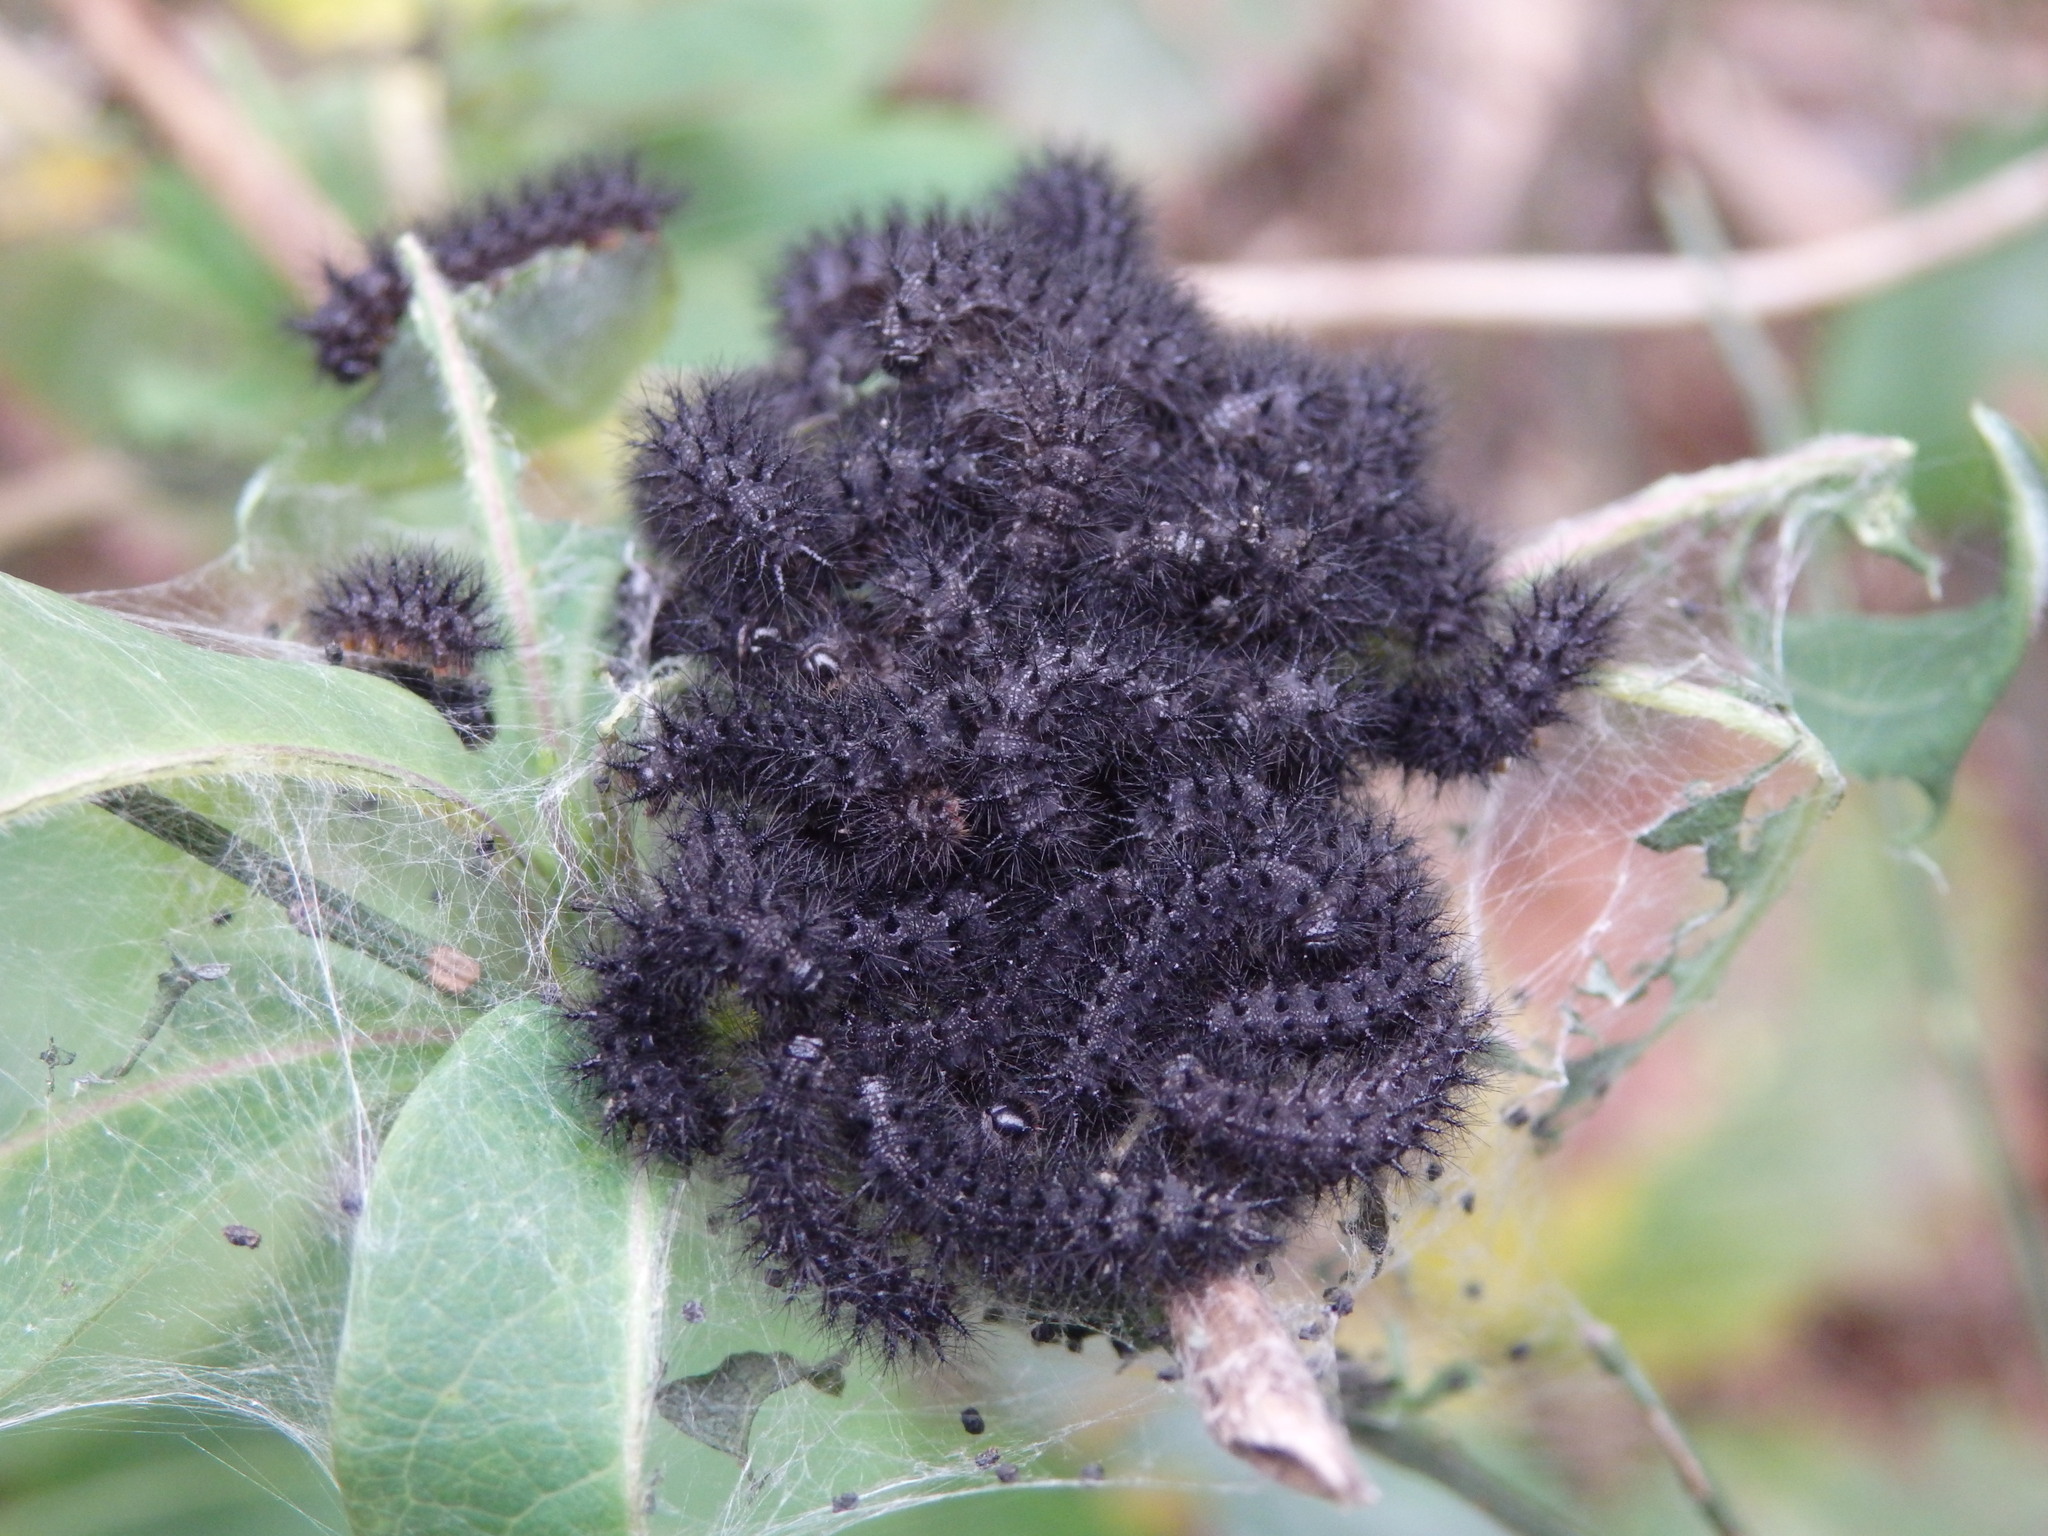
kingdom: Animalia
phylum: Arthropoda
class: Insecta
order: Lepidoptera
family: Nymphalidae
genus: Euphydryas
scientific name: Euphydryas aurinia
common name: Marsh fritillary
